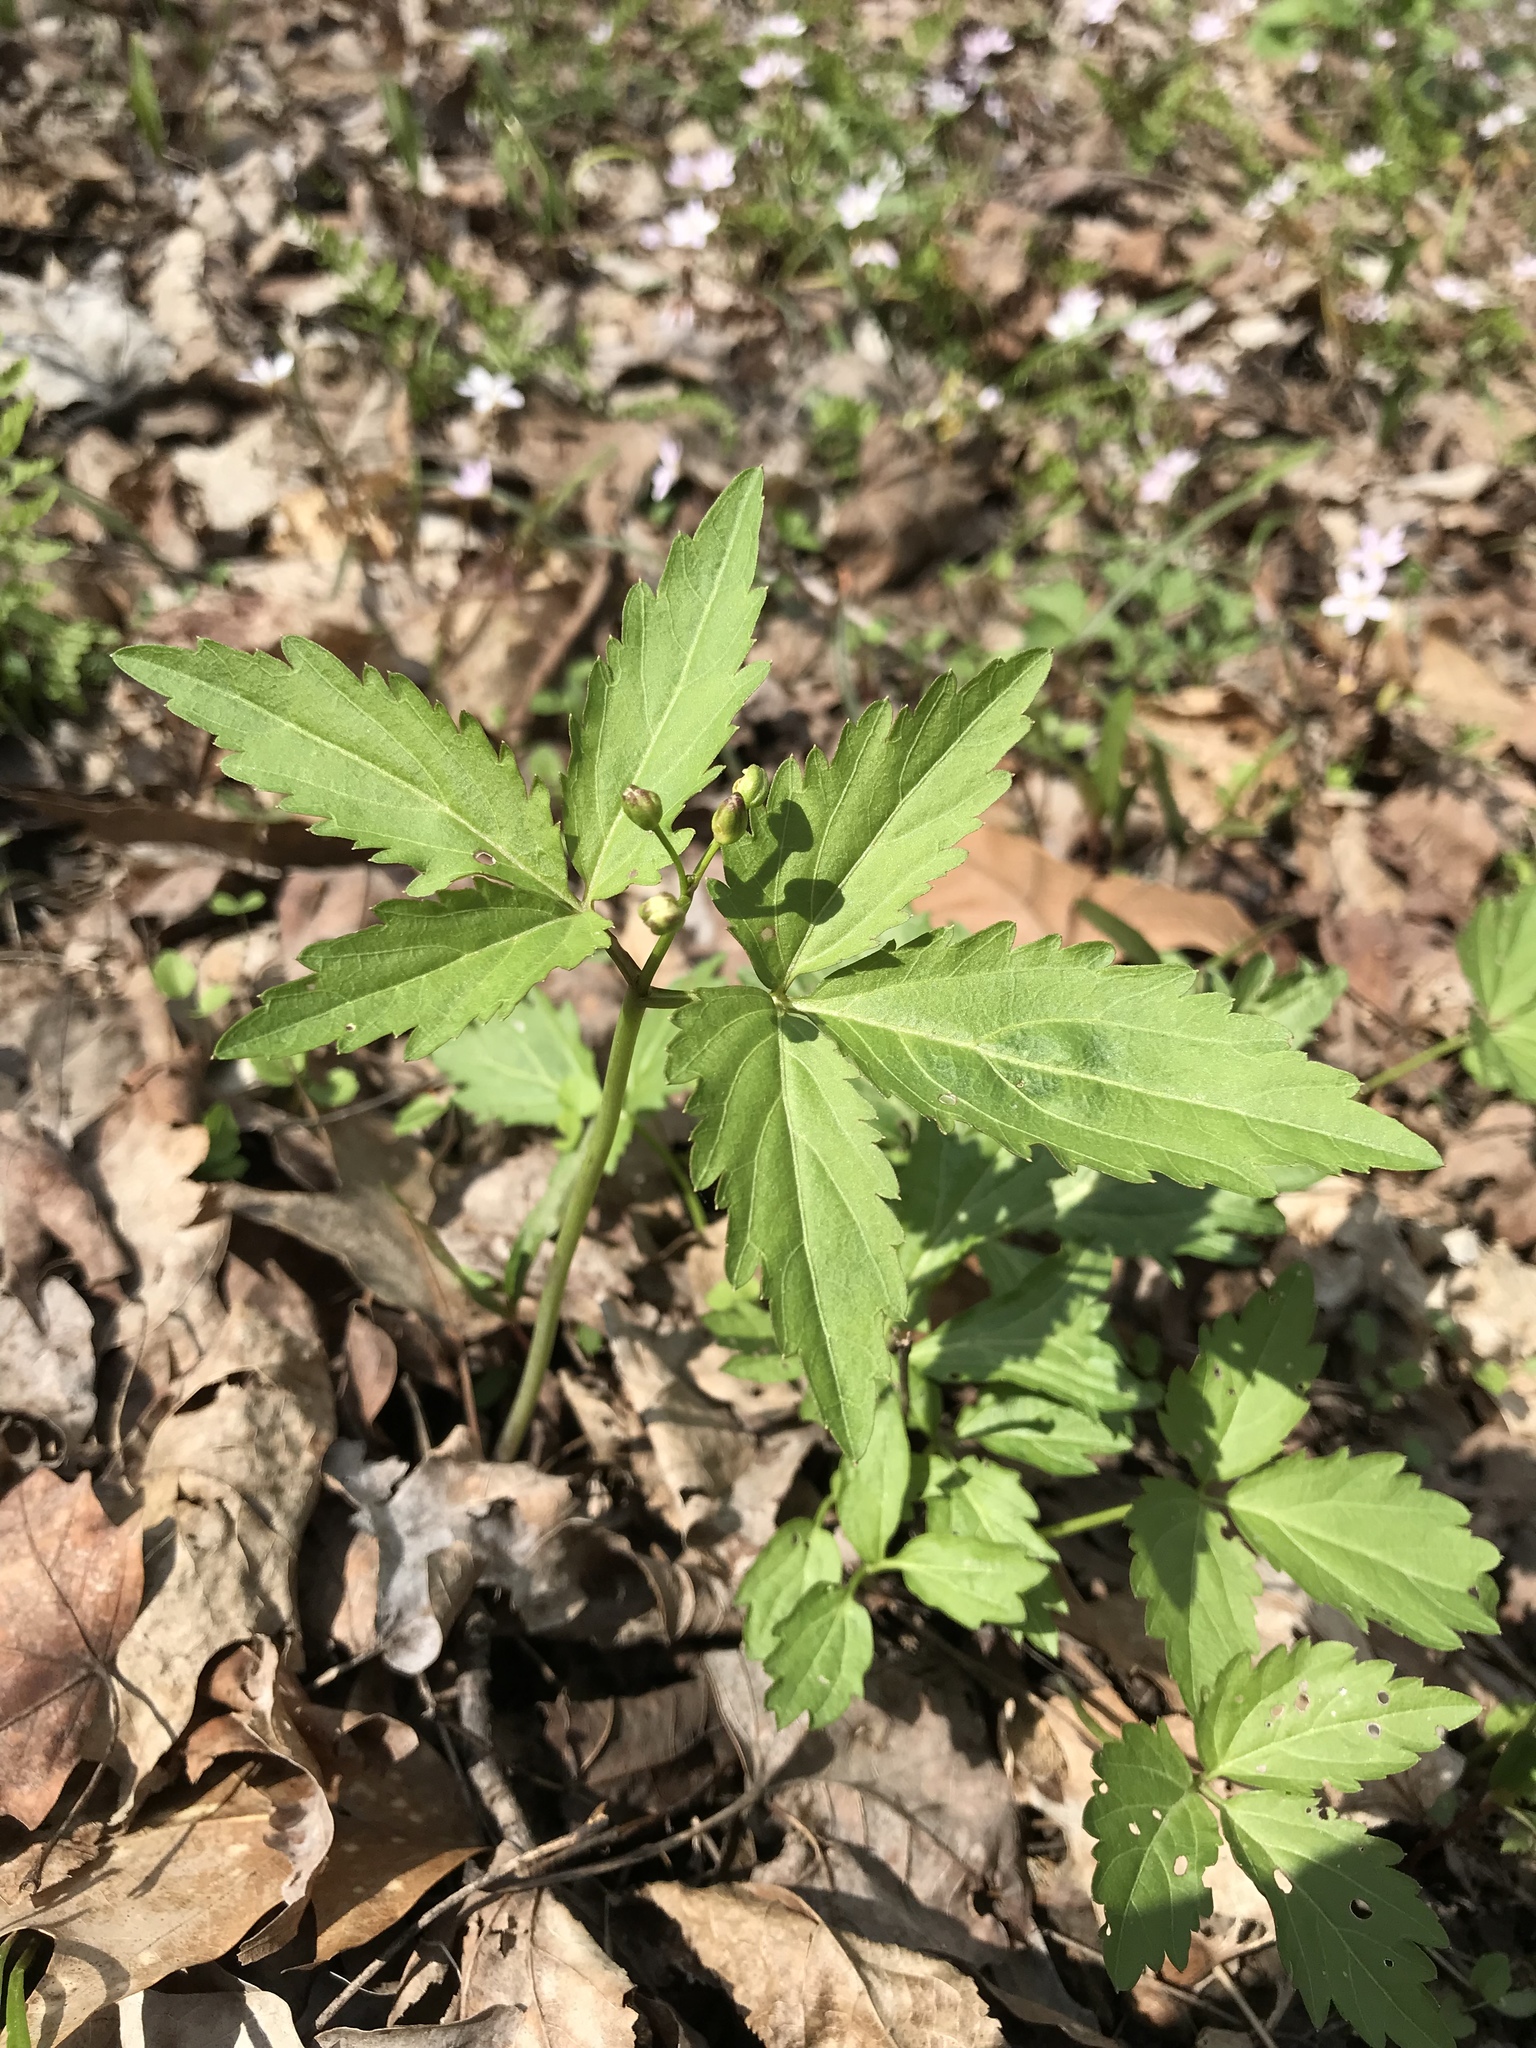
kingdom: Plantae
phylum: Tracheophyta
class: Magnoliopsida
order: Brassicales
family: Brassicaceae
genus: Cardamine
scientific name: Cardamine diphylla
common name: Broad-leaved toothwort
